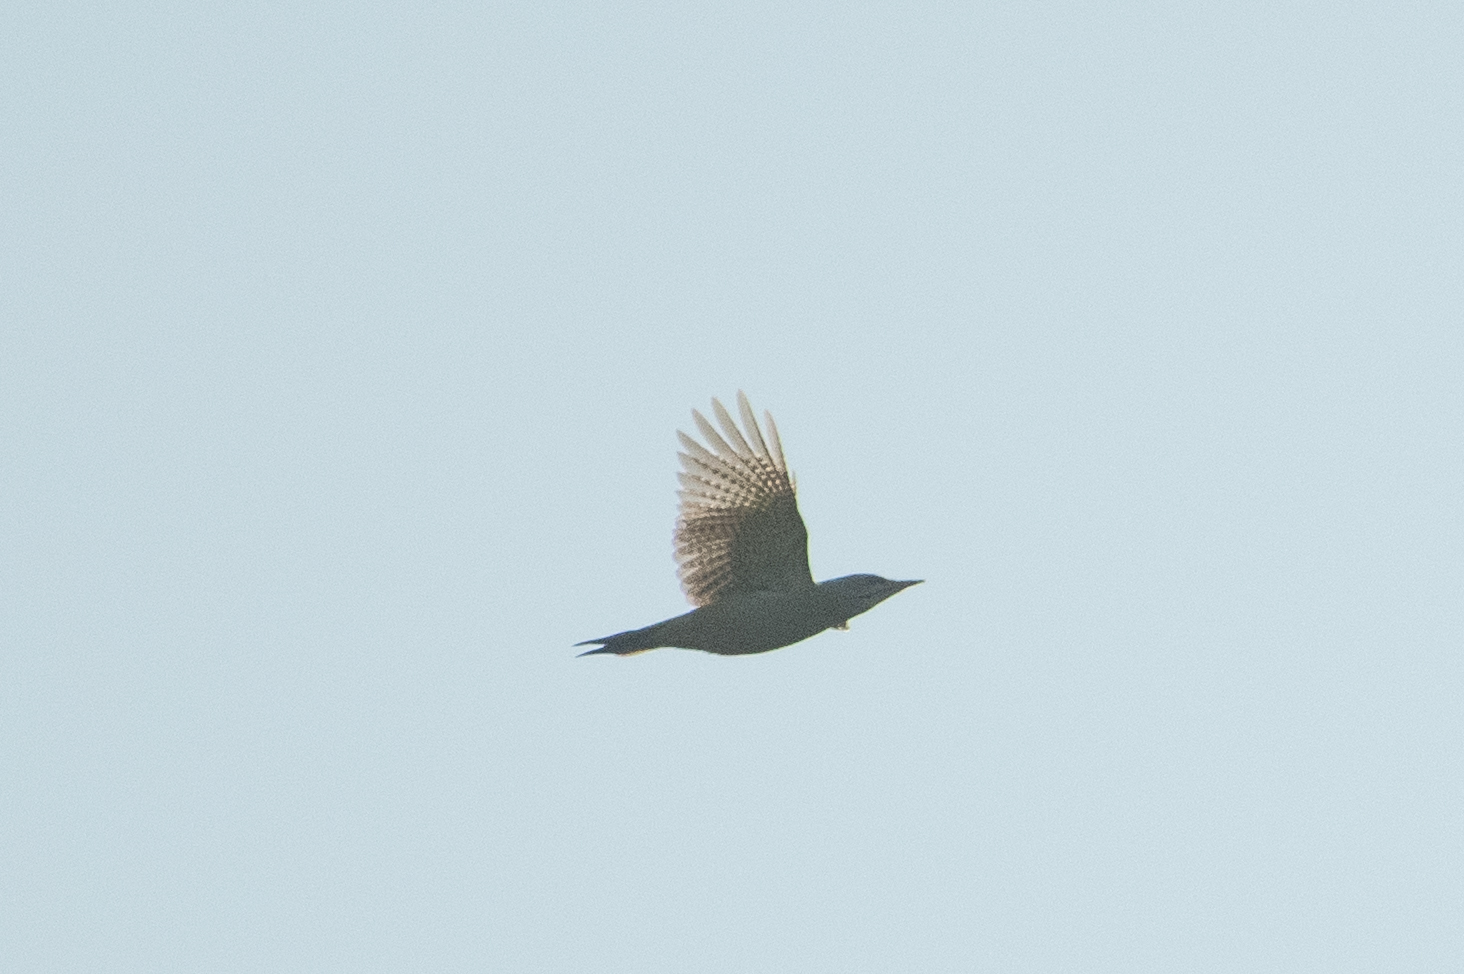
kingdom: Animalia
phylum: Chordata
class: Aves
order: Piciformes
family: Picidae
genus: Picus
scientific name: Picus canus
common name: Grey-headed woodpecker
